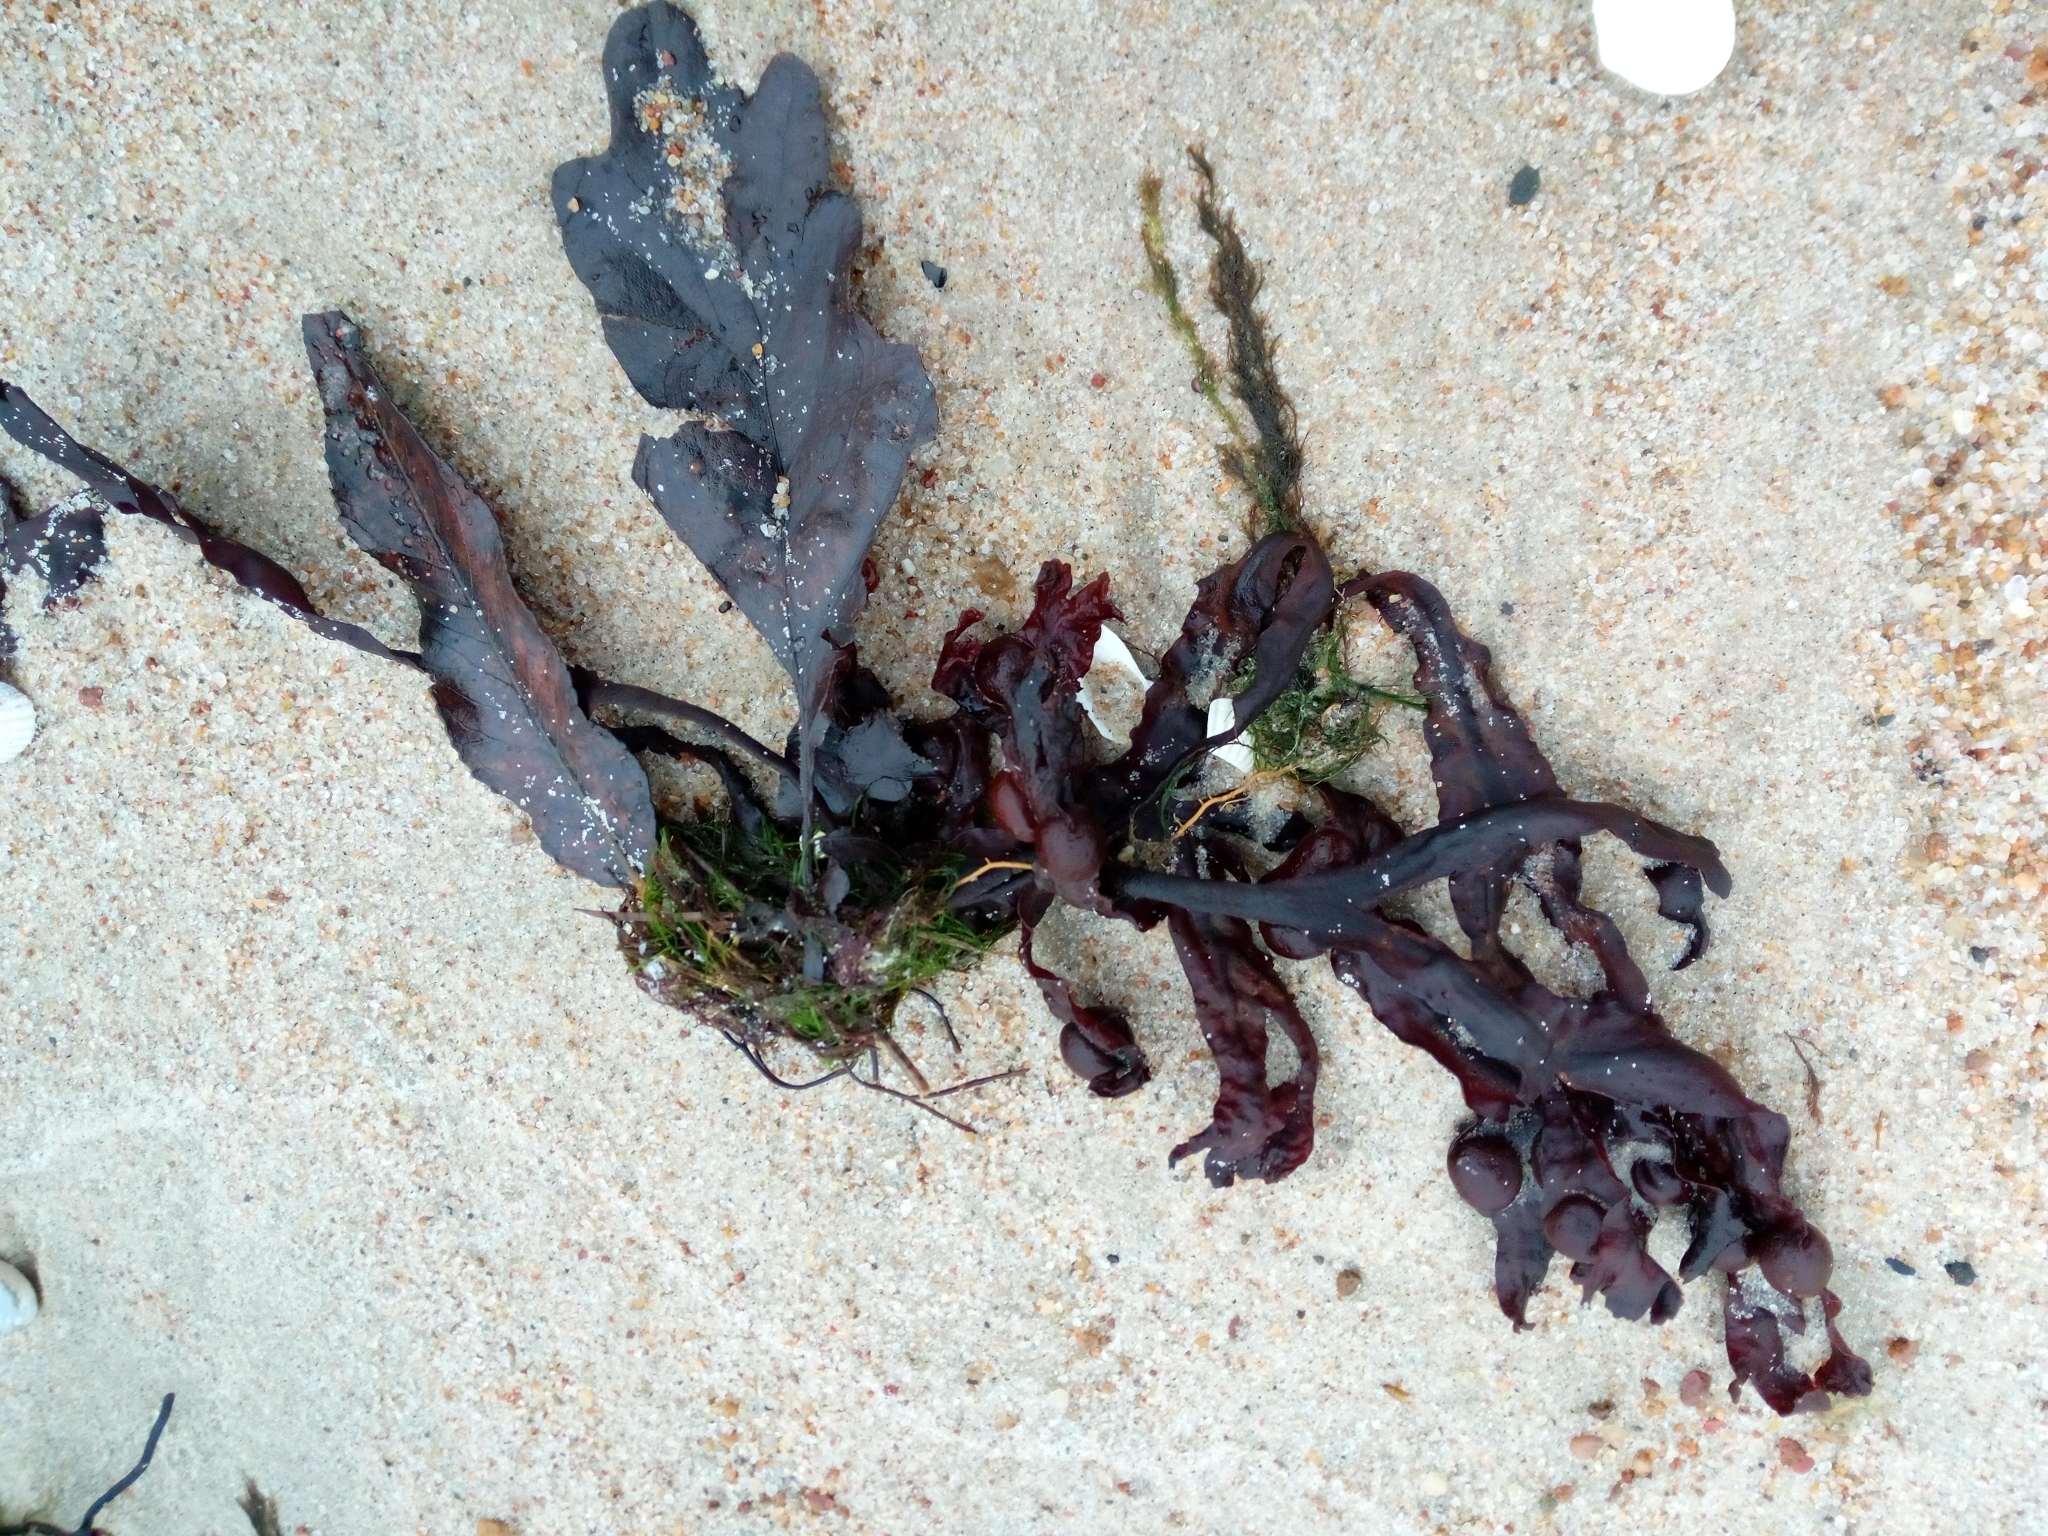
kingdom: Chromista
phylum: Ochrophyta
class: Phaeophyceae
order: Fucales
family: Fucaceae
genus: Fucus
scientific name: Fucus vesiculosus
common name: Bladder wrack
